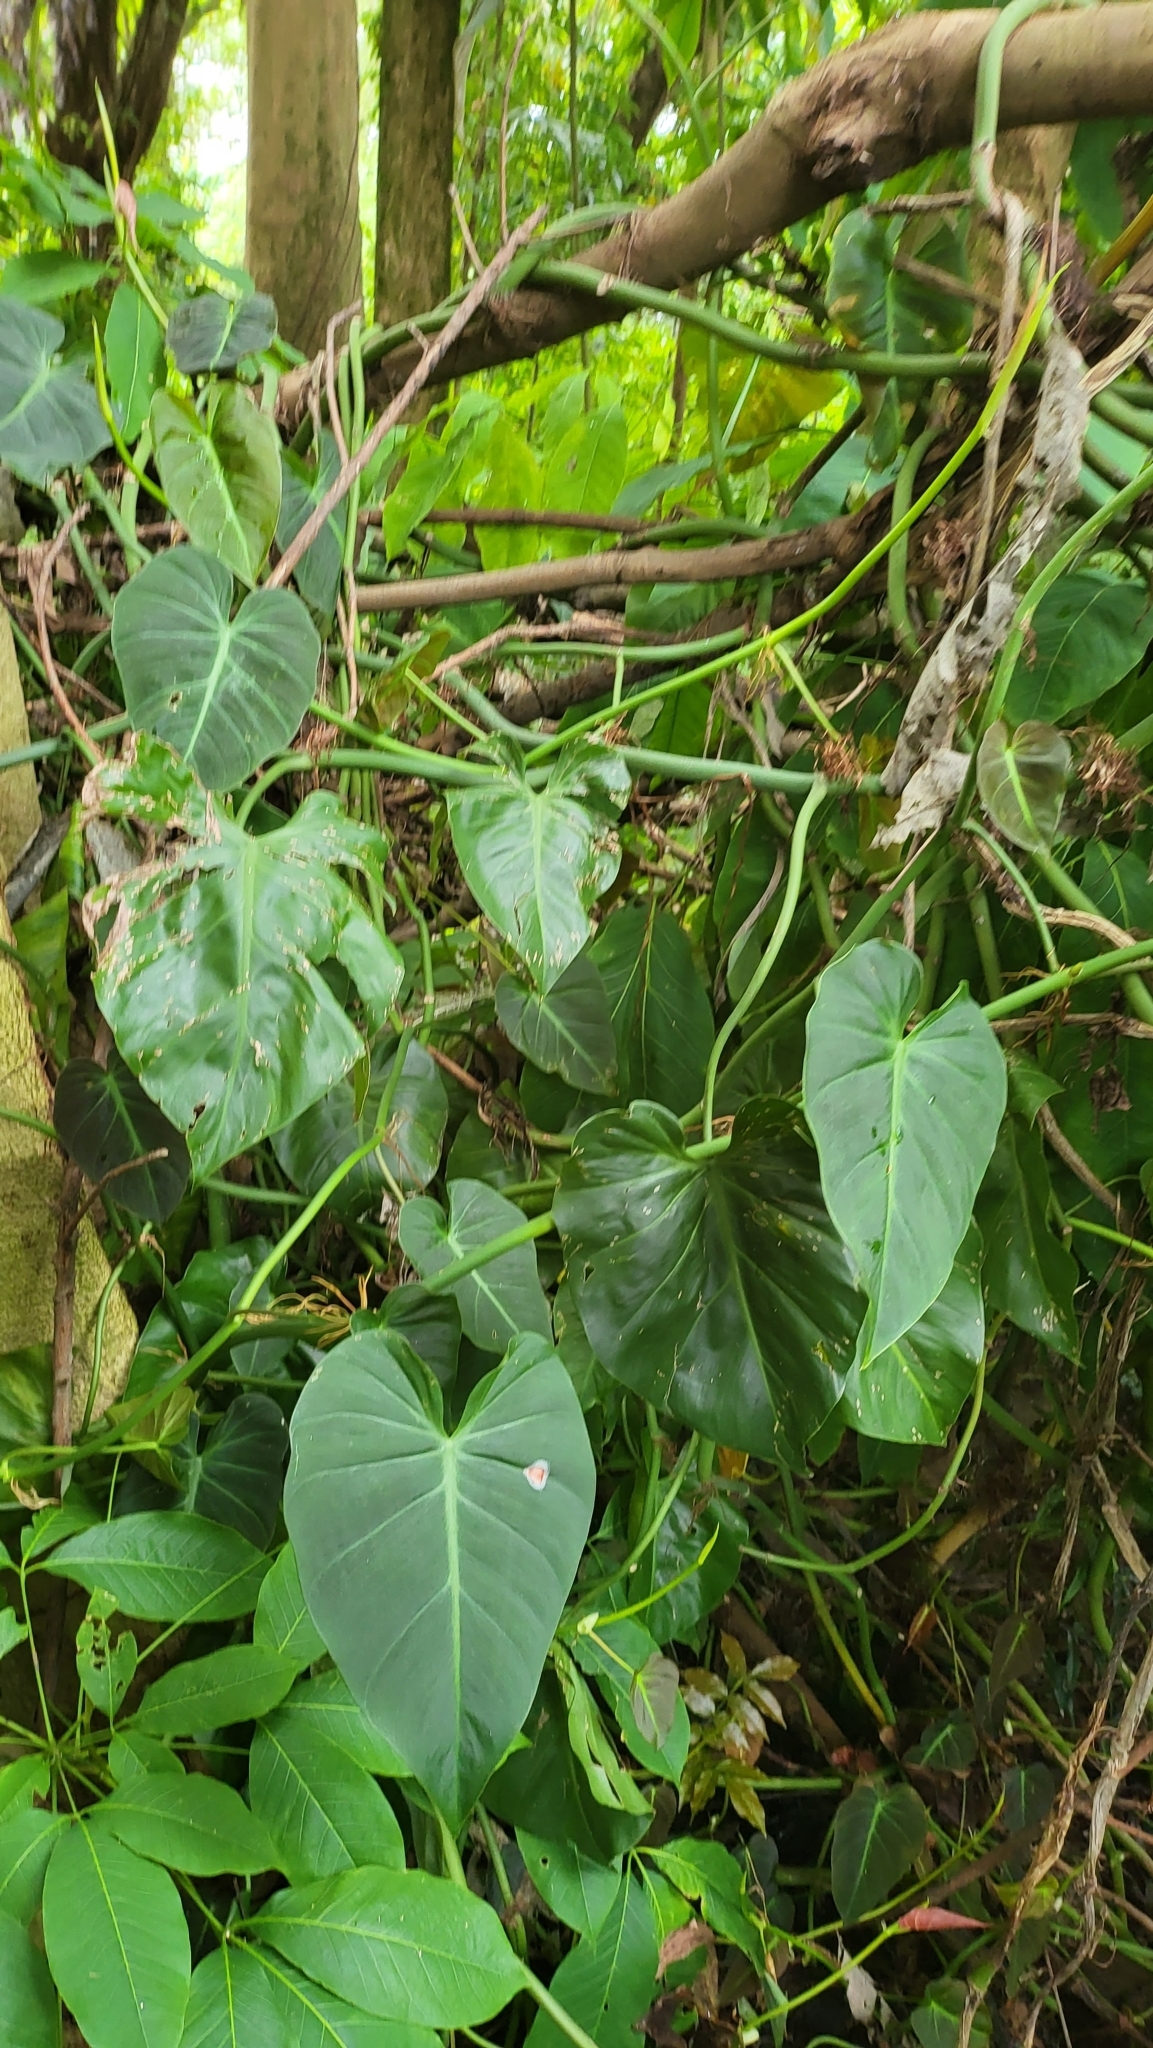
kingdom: Plantae
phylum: Tracheophyta
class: Liliopsida
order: Alismatales
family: Araceae
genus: Philodendron
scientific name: Philodendron hederaceum
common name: Vilevine
